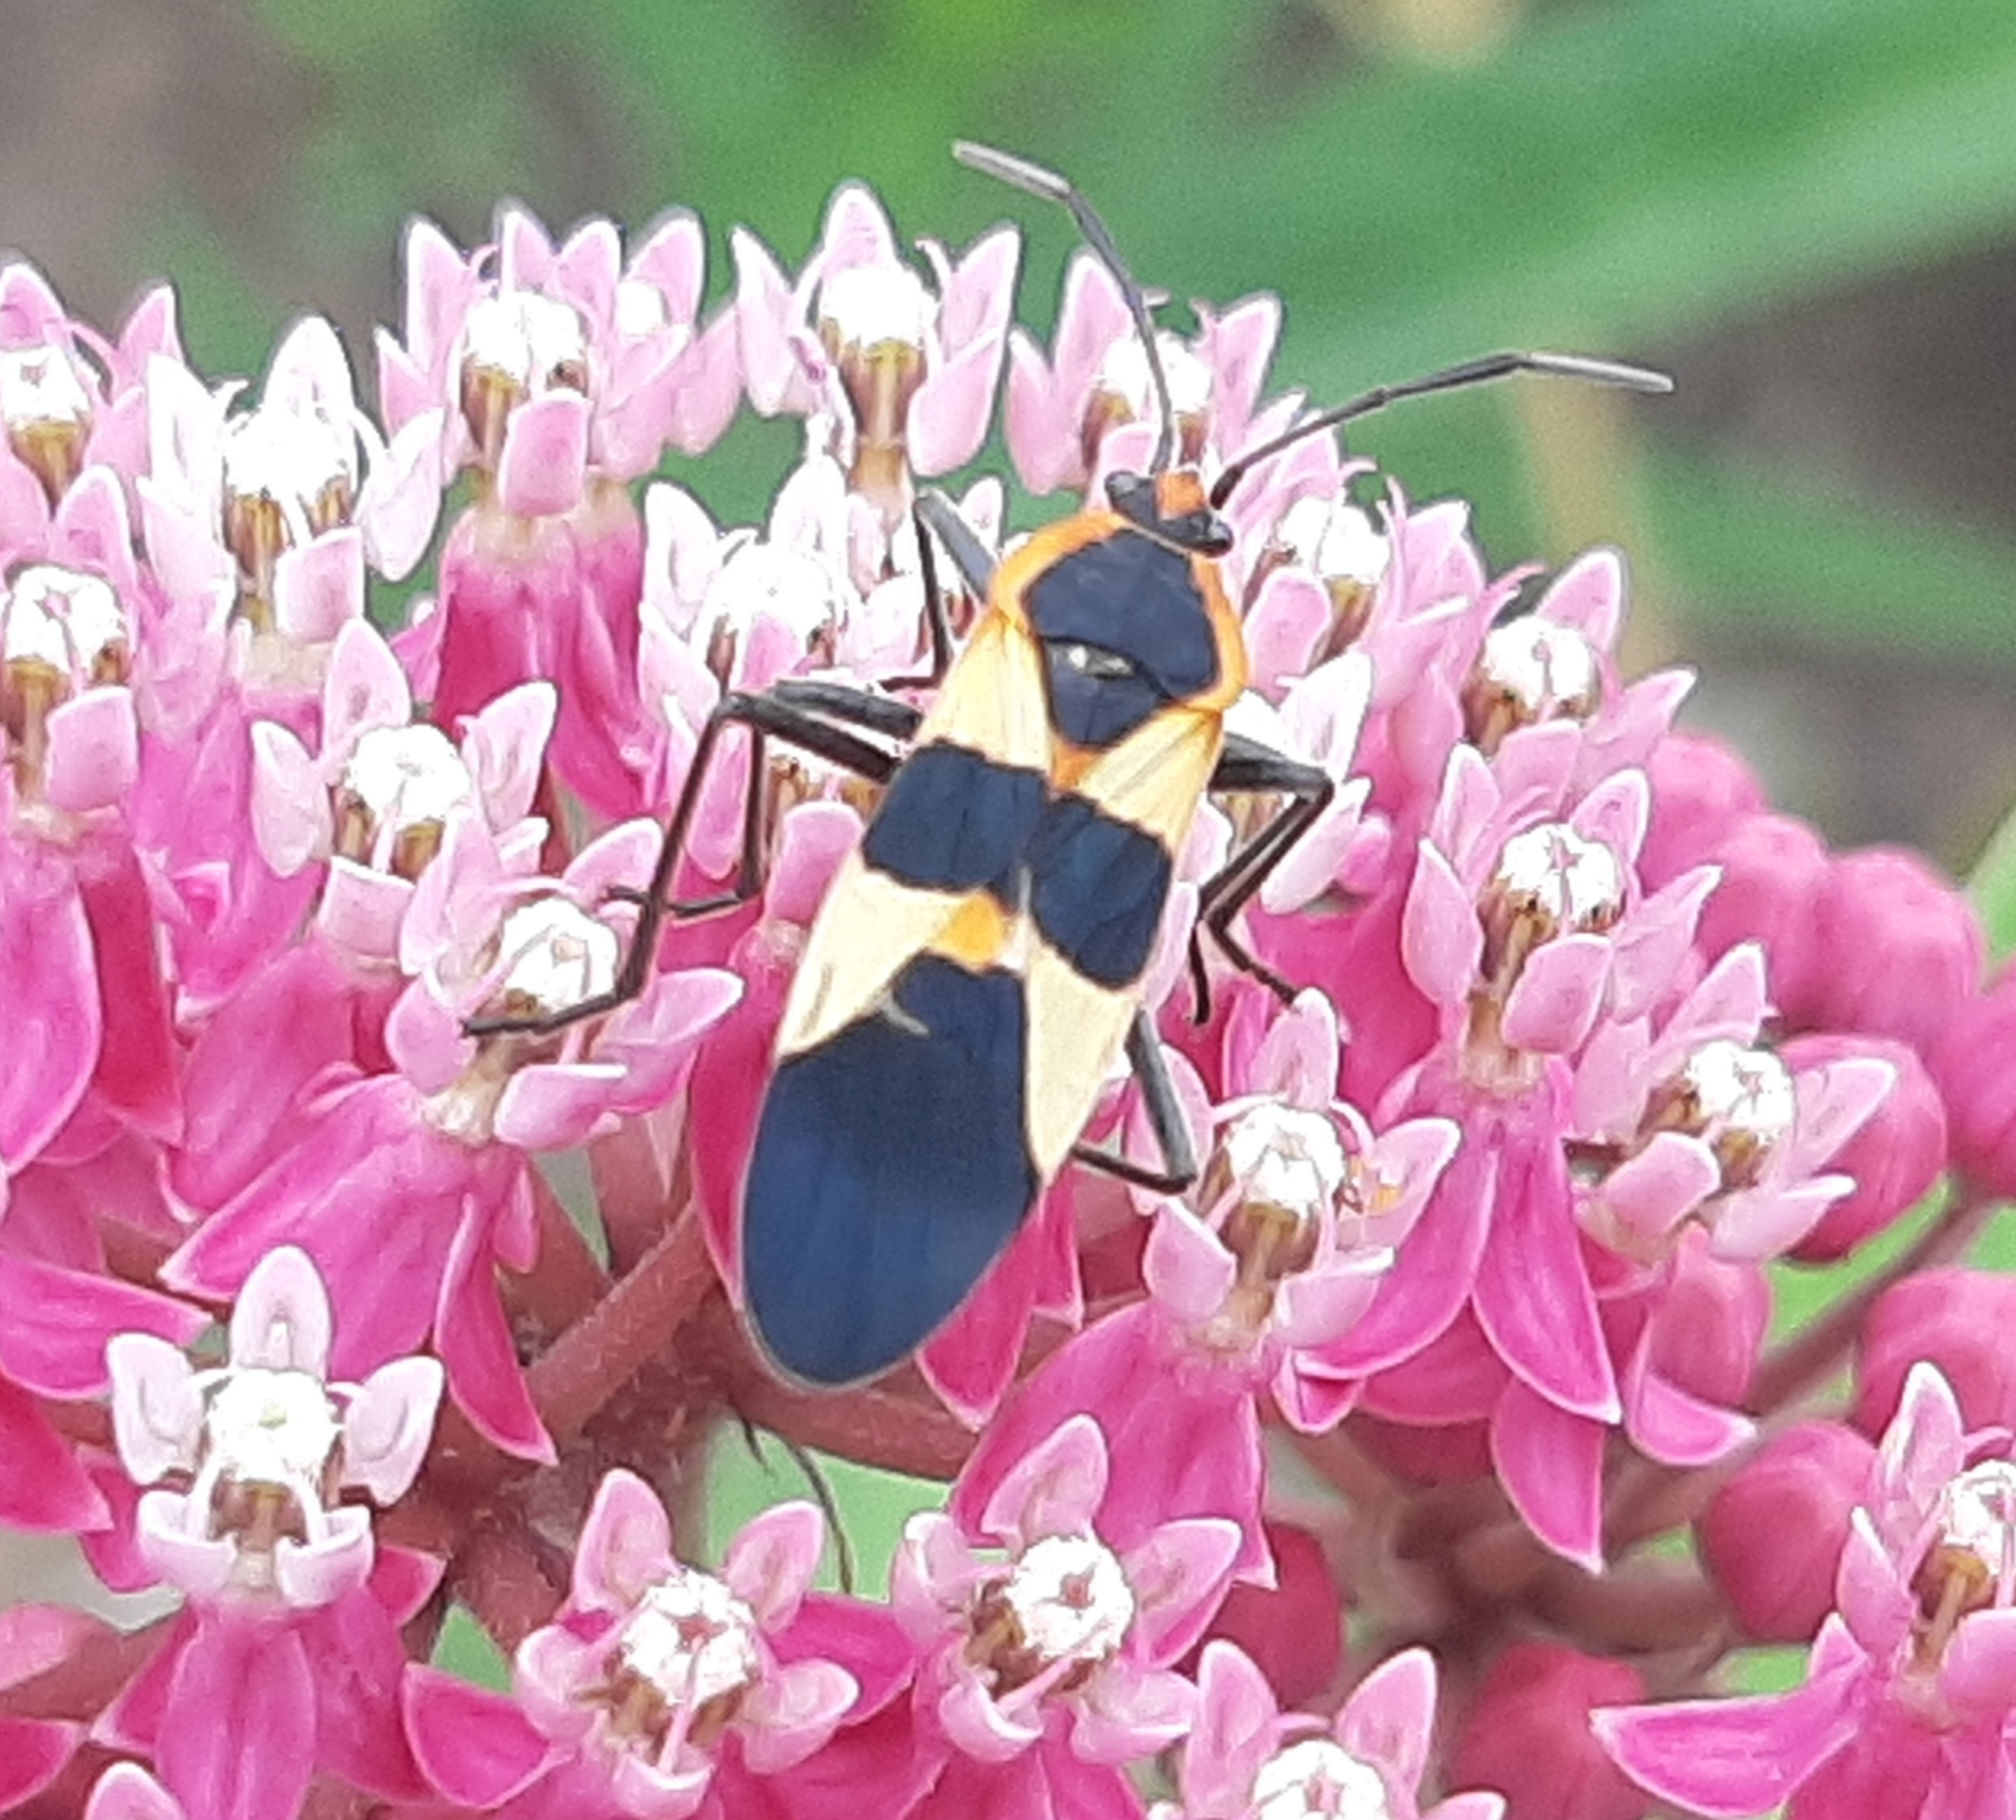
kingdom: Animalia
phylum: Arthropoda
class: Insecta
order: Hemiptera
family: Lygaeidae
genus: Oncopeltus
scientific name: Oncopeltus fasciatus
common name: Large milkweed bug
